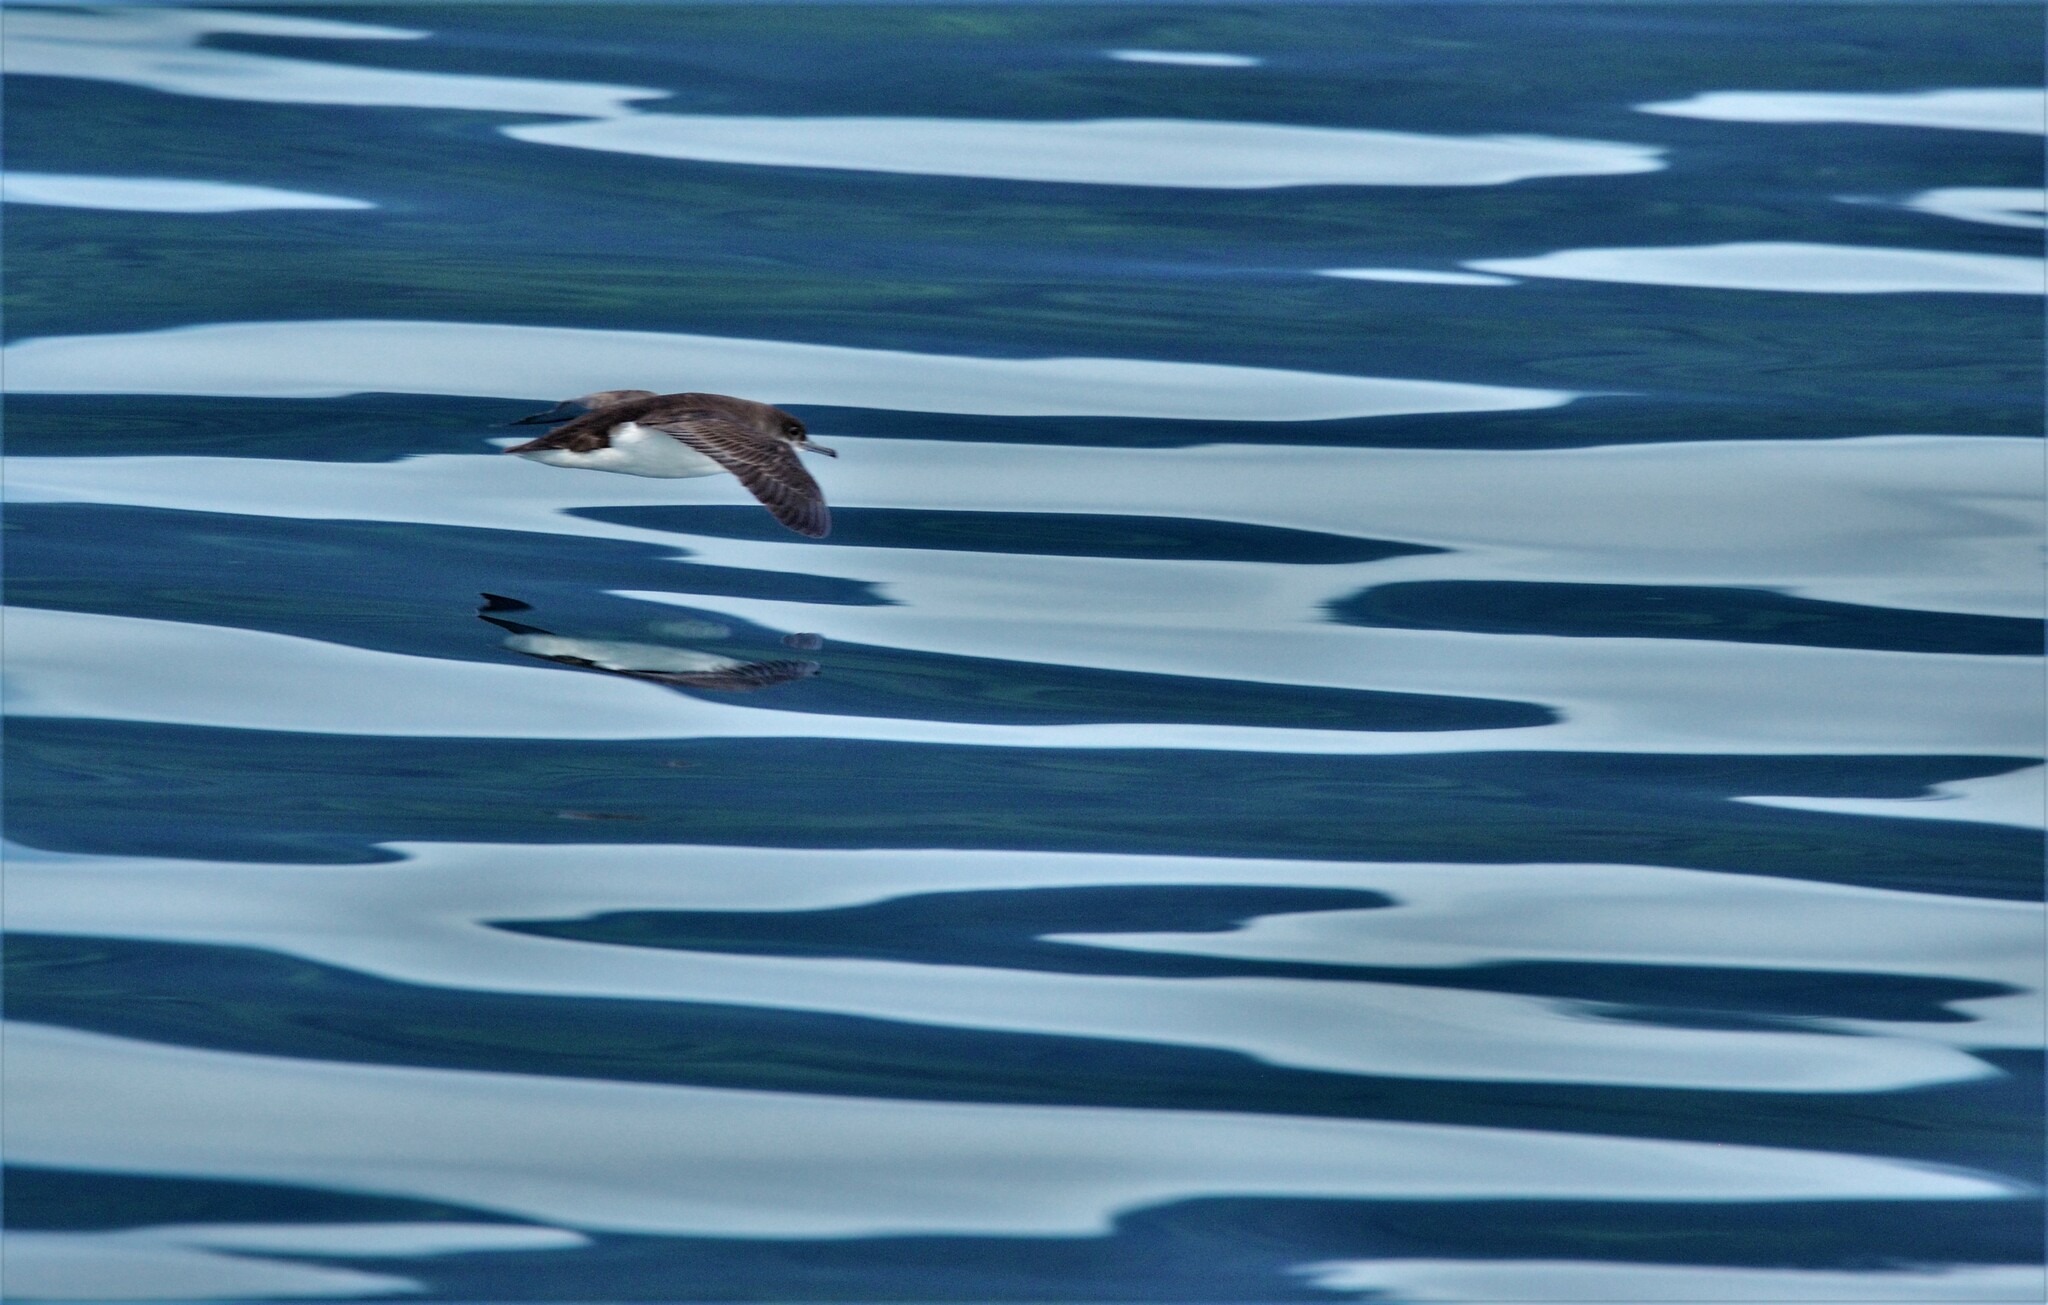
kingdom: Animalia
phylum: Chordata
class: Aves
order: Procellariiformes
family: Procellariidae
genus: Puffinus
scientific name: Puffinus gavia
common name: Fluttering shearwater
